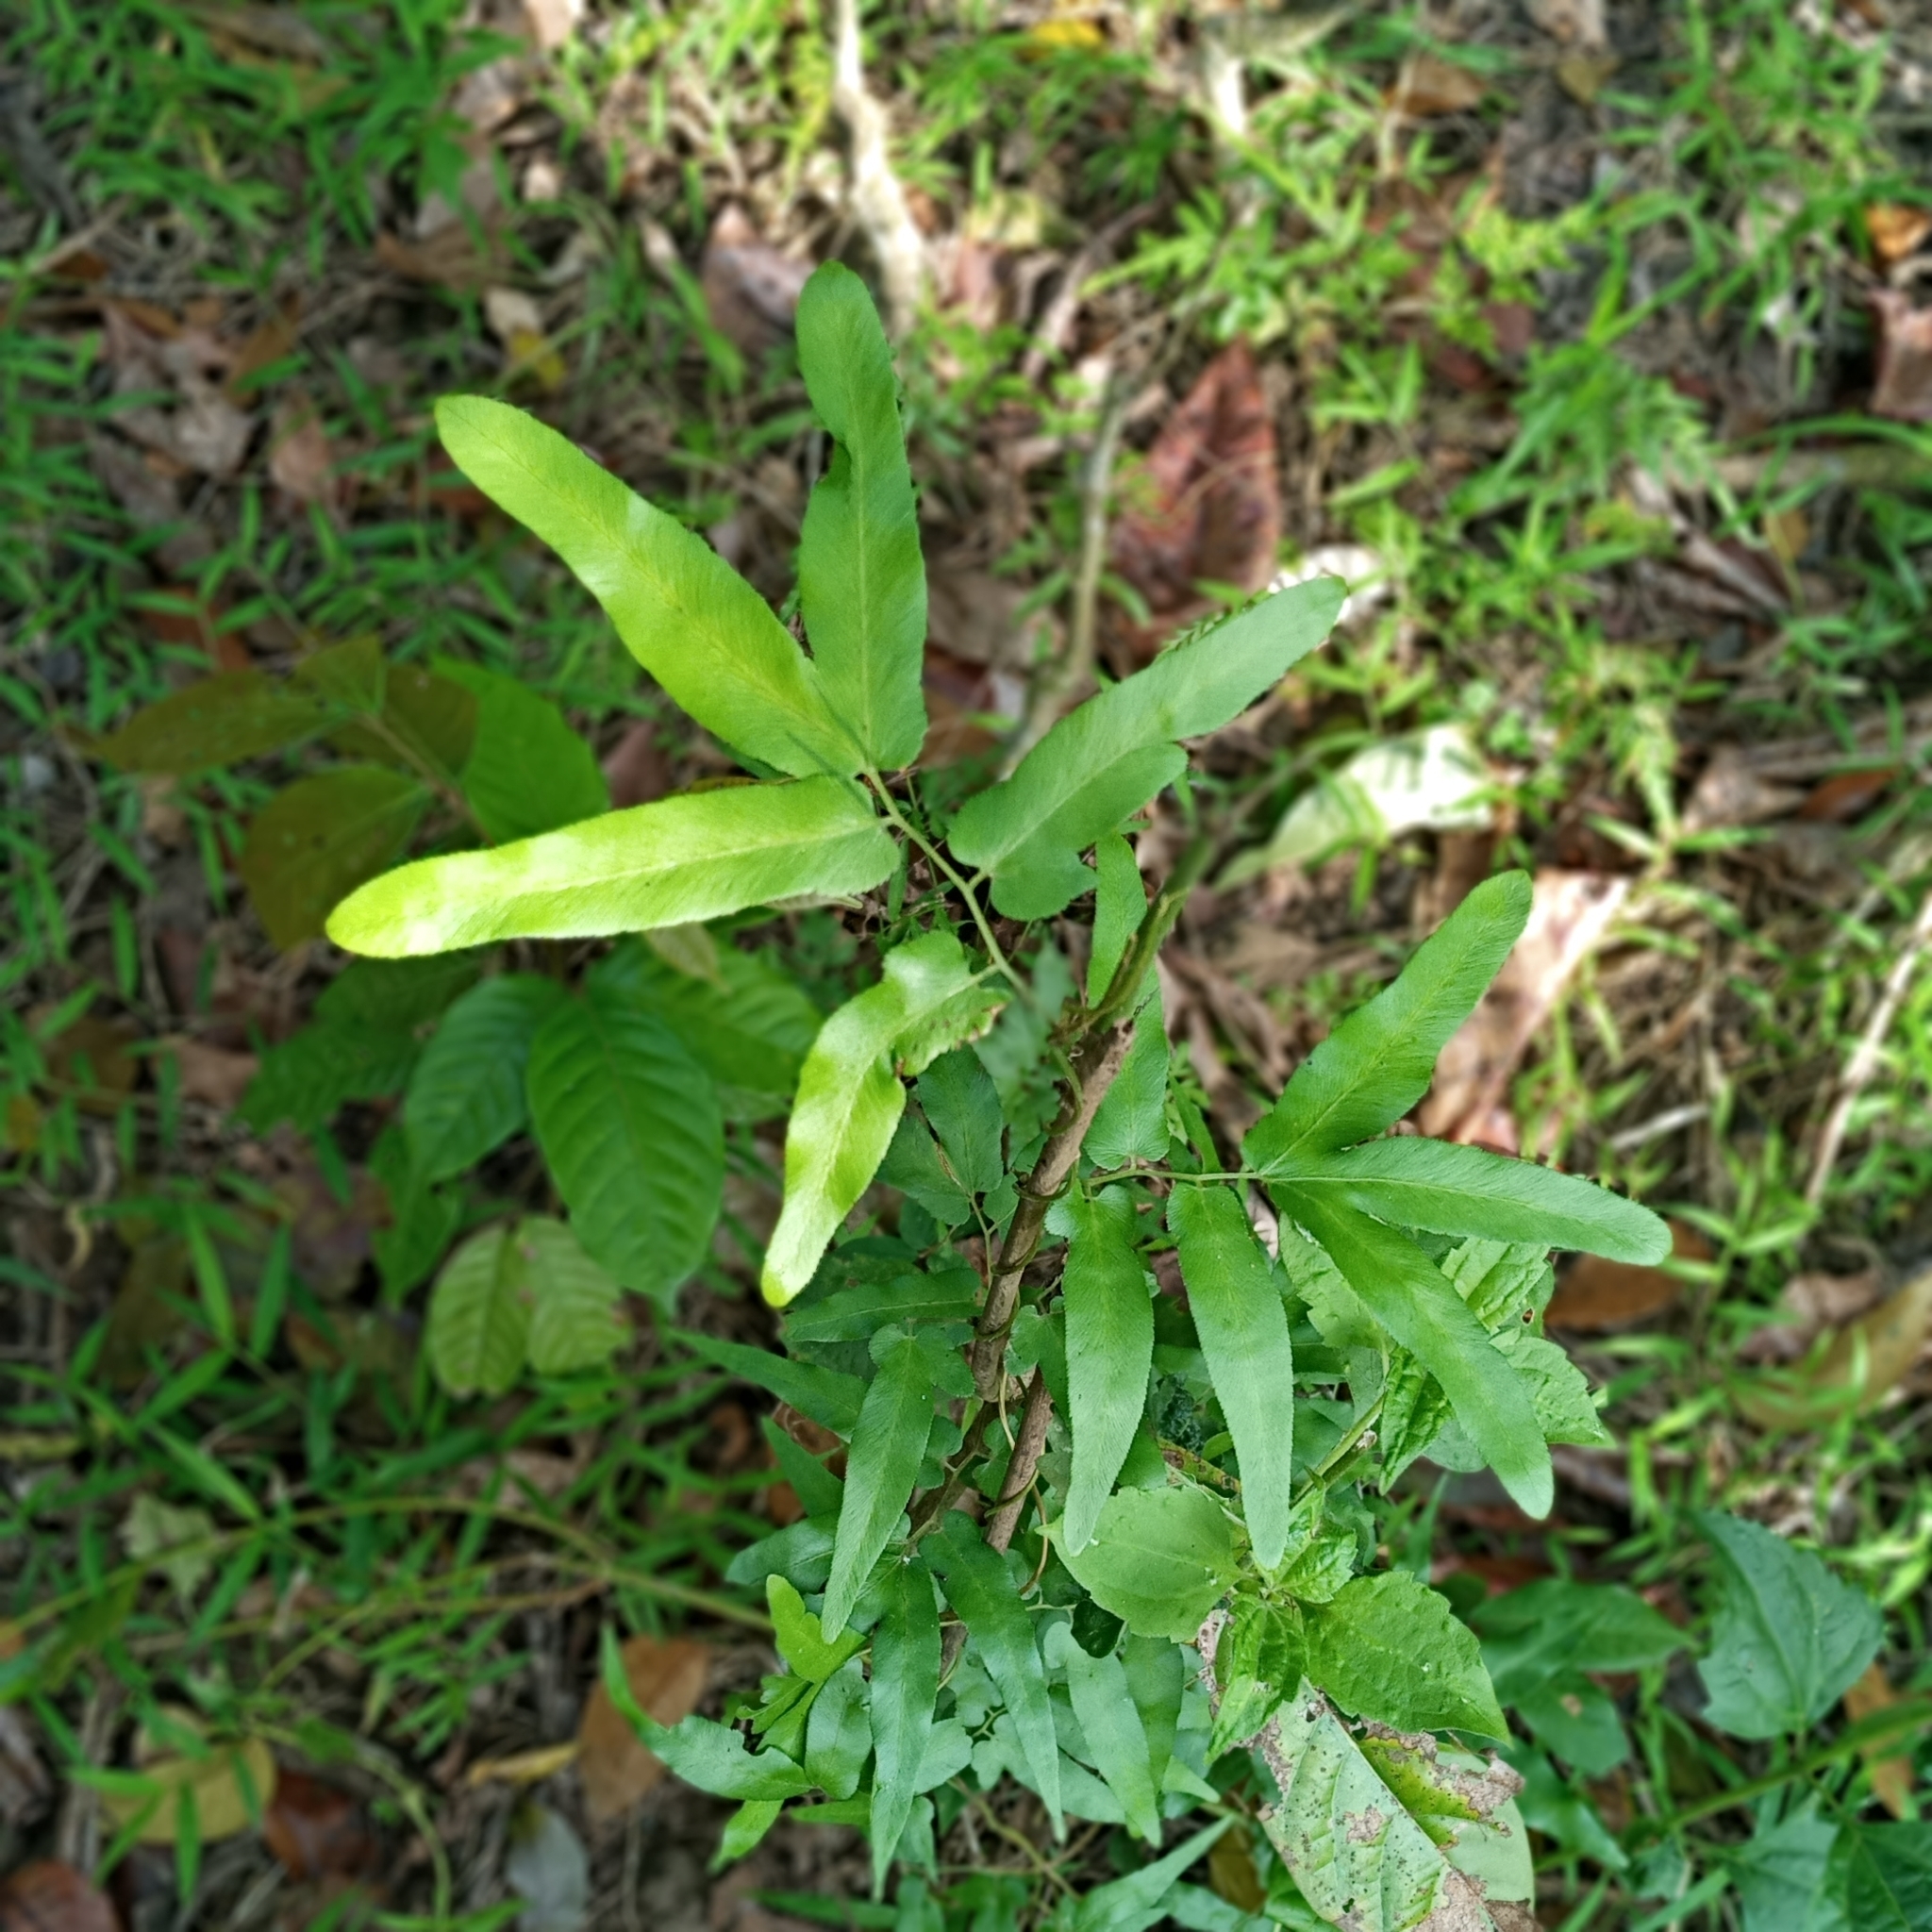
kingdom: Plantae
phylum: Tracheophyta
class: Polypodiopsida
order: Schizaeales
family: Lygodiaceae
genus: Lygodium
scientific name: Lygodium salicifolium
